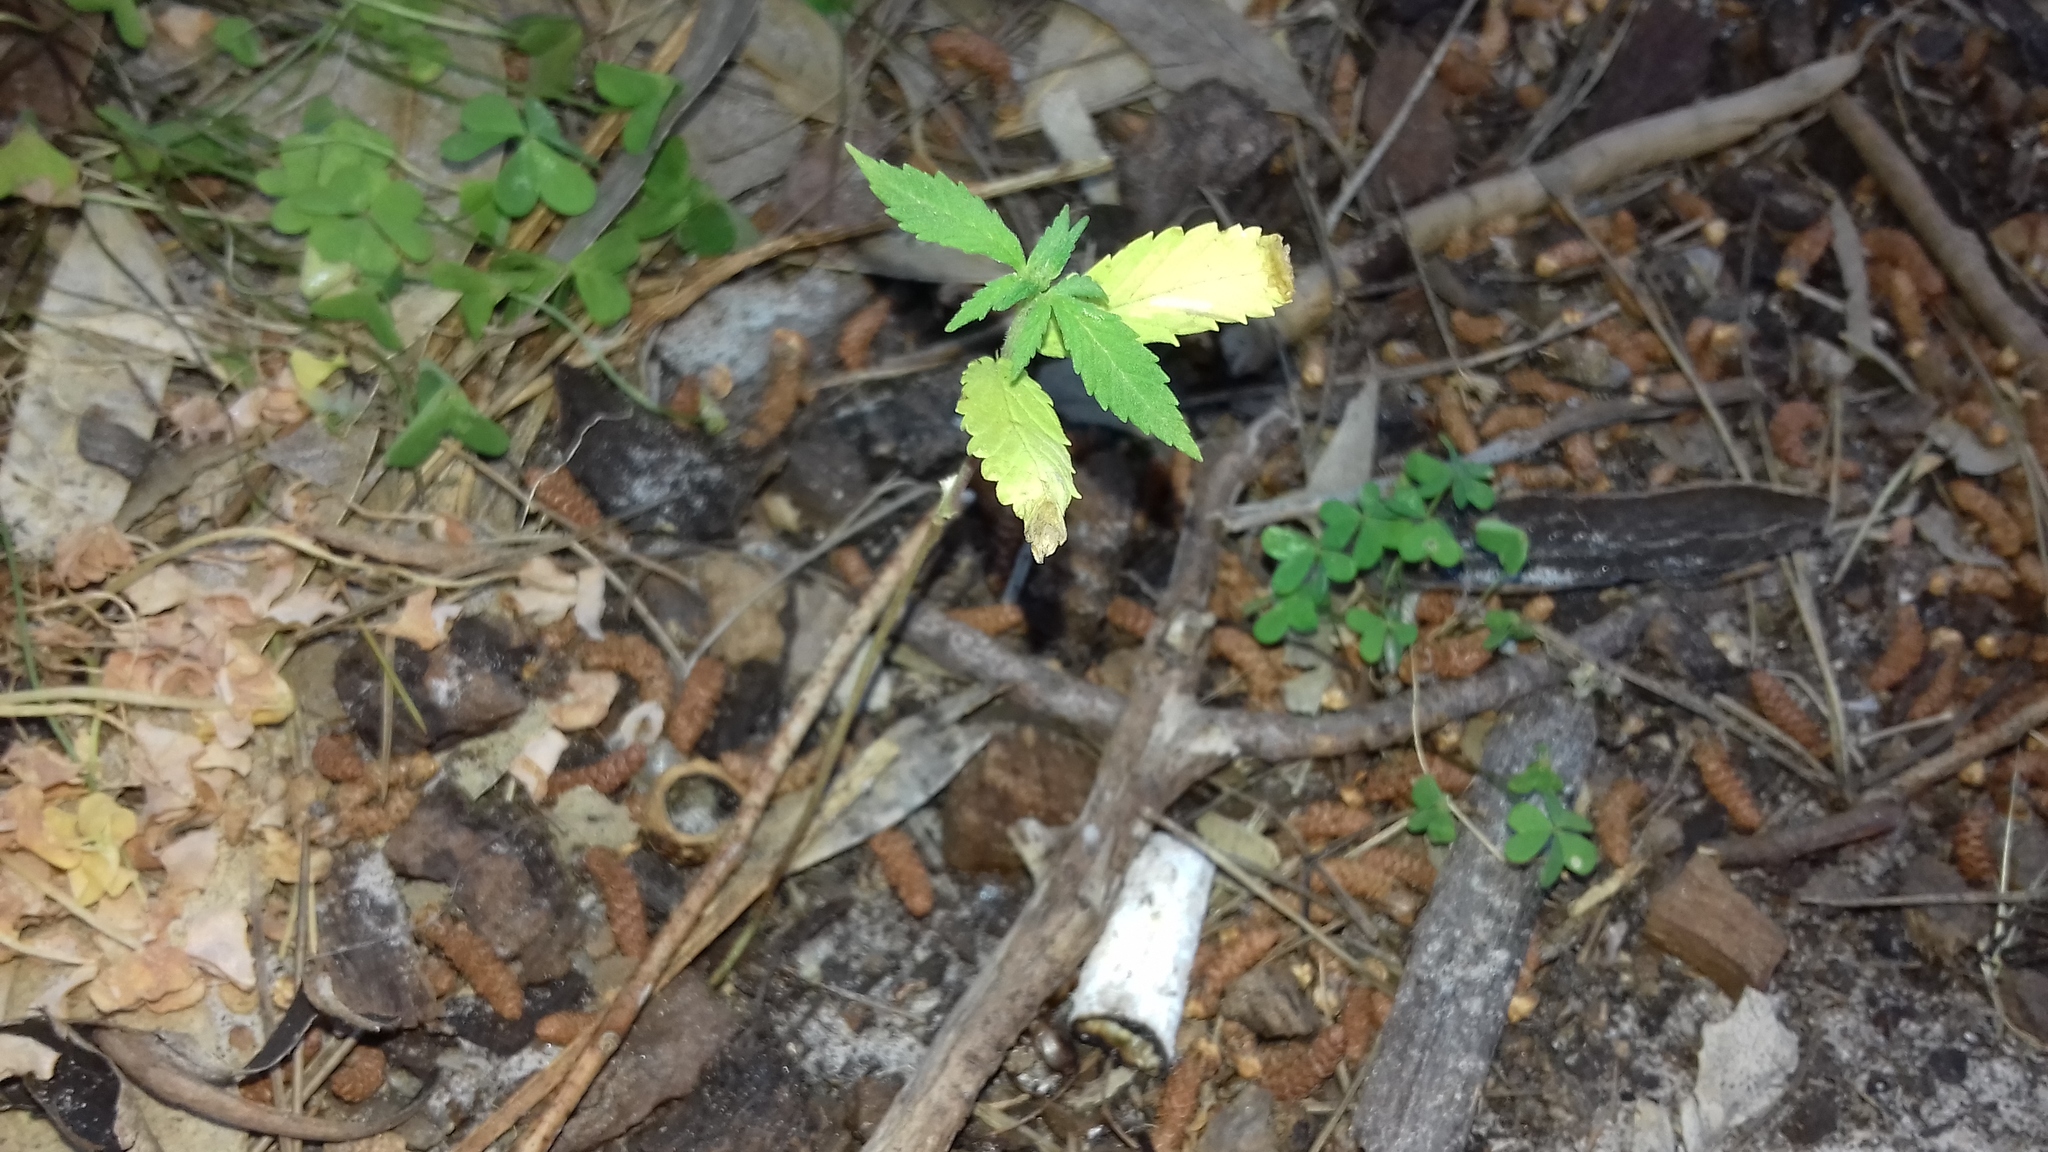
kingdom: Plantae
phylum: Tracheophyta
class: Magnoliopsida
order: Rosales
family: Cannabaceae
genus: Cannabis
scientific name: Cannabis sativa
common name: Hemp
